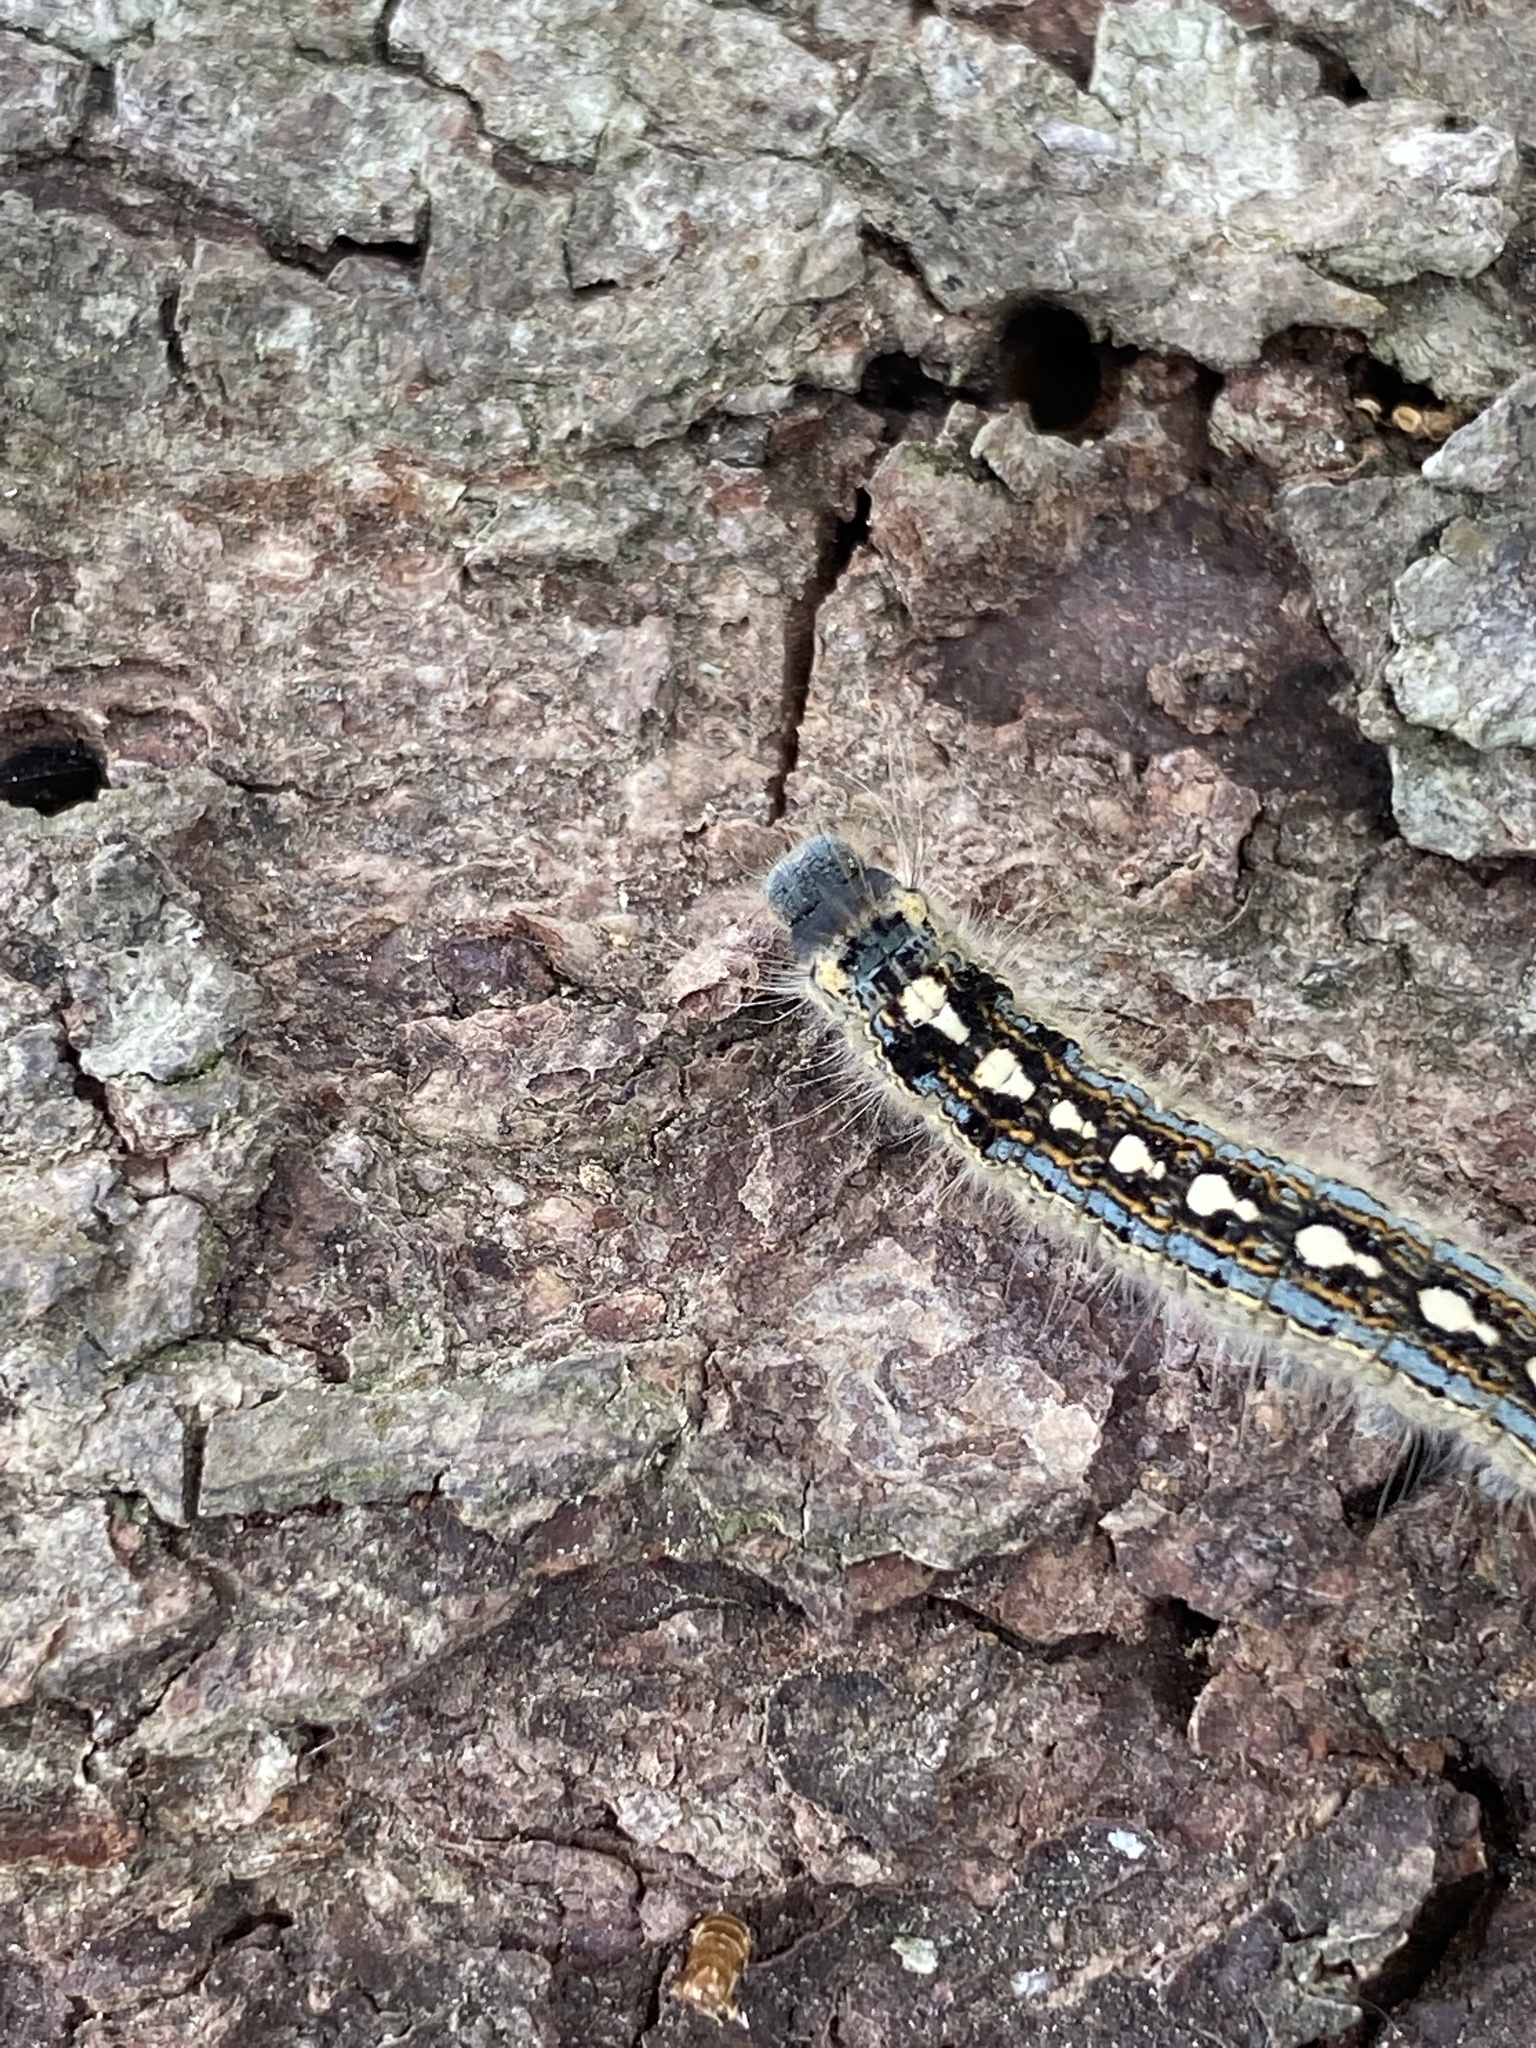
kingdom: Animalia
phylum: Arthropoda
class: Insecta
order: Lepidoptera
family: Lasiocampidae
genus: Malacosoma
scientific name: Malacosoma disstria
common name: Forest tent caterpillar
